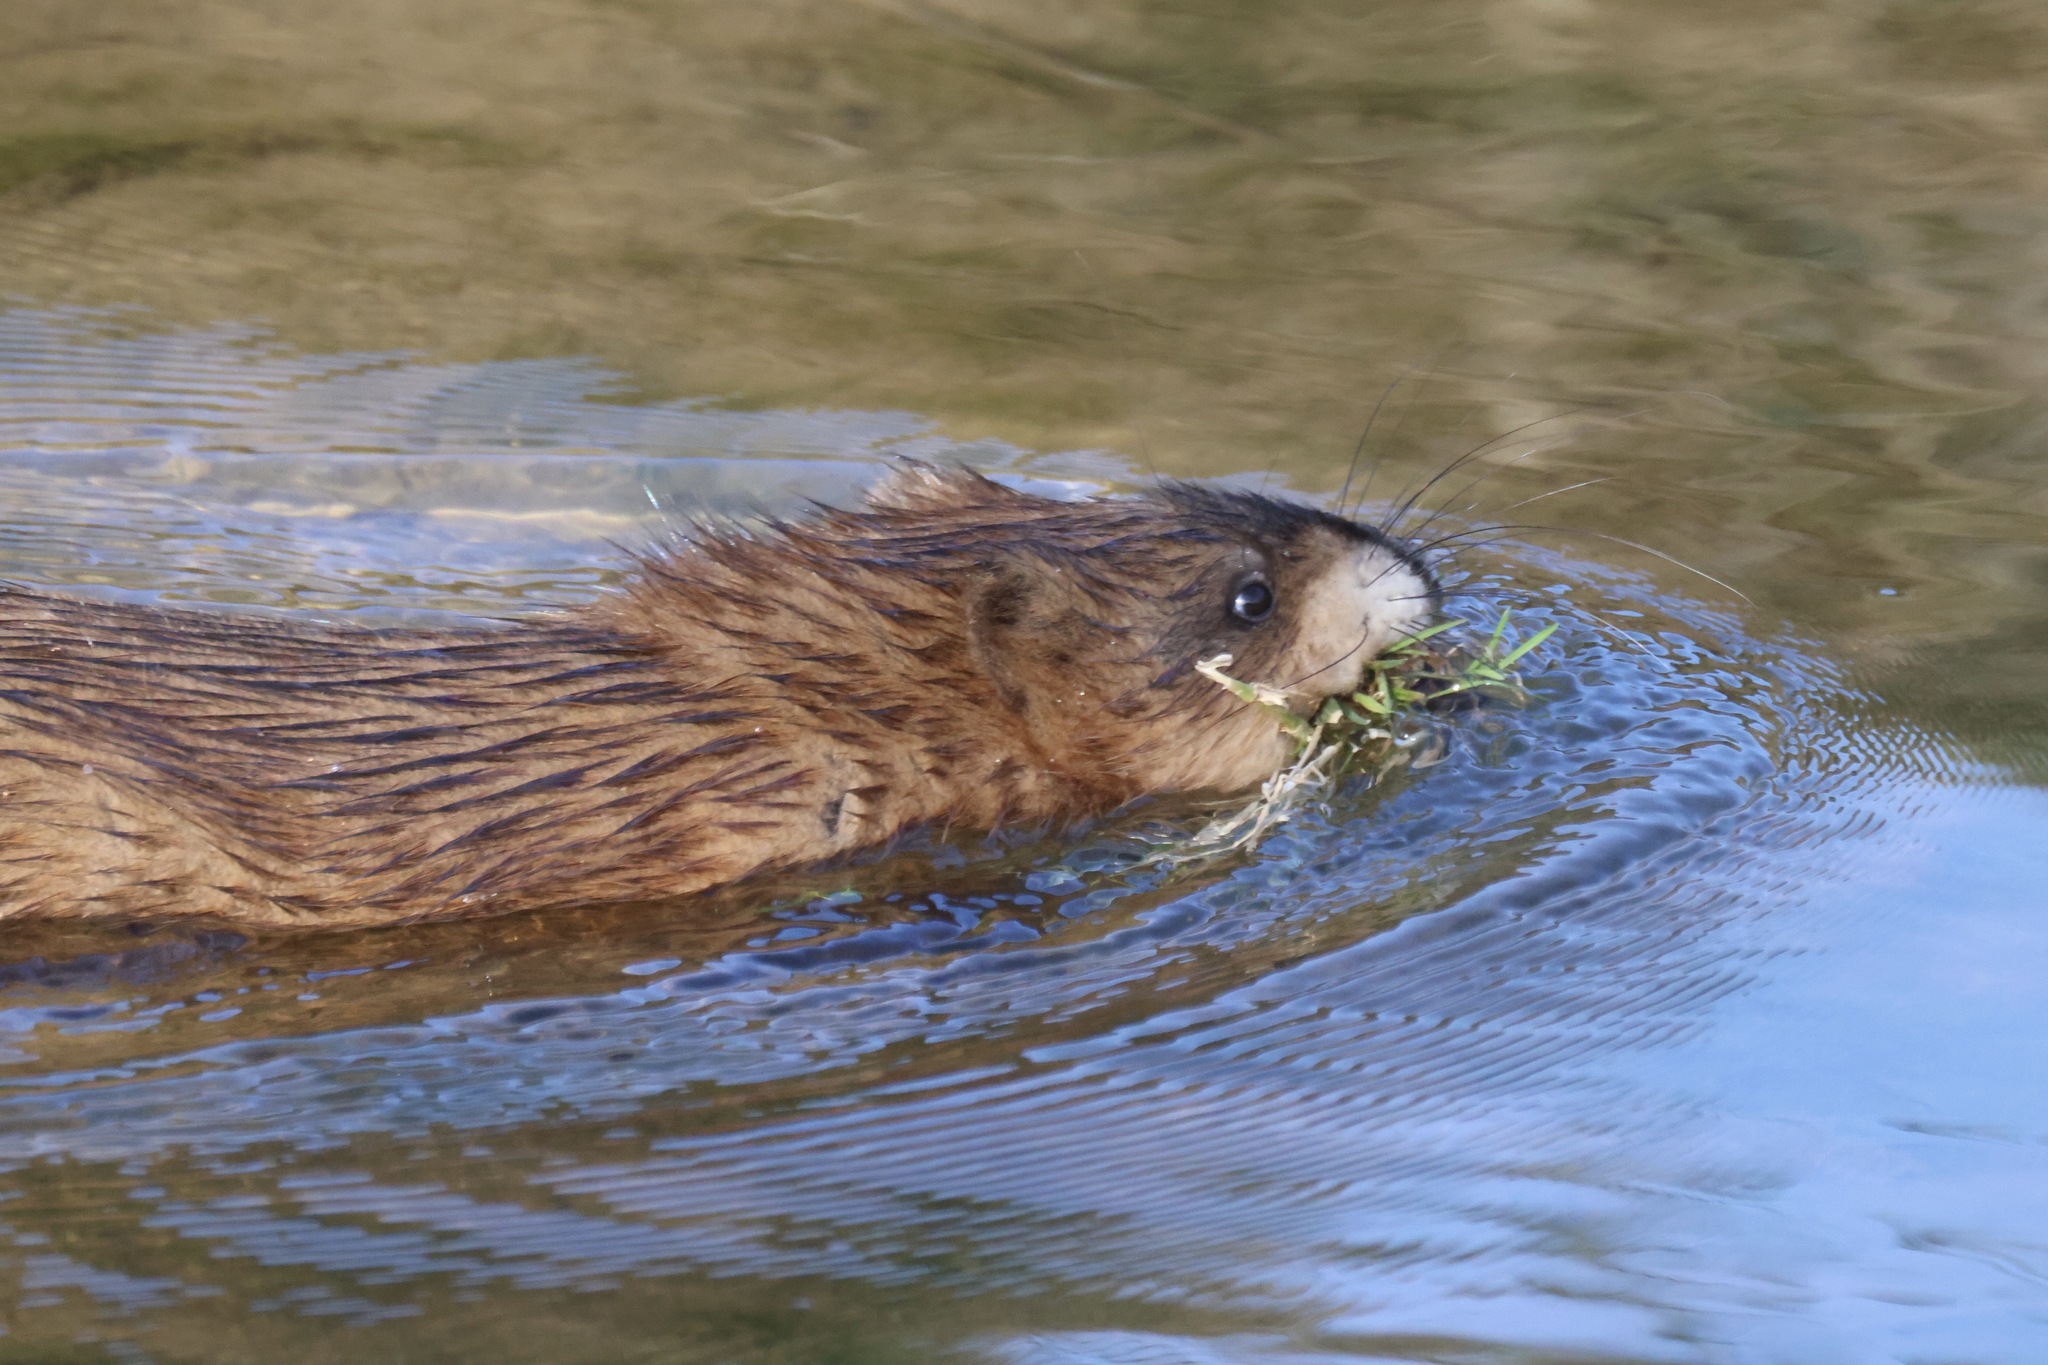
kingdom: Animalia
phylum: Chordata
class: Mammalia
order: Rodentia
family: Cricetidae
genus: Ondatra
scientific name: Ondatra zibethicus
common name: Muskrat
